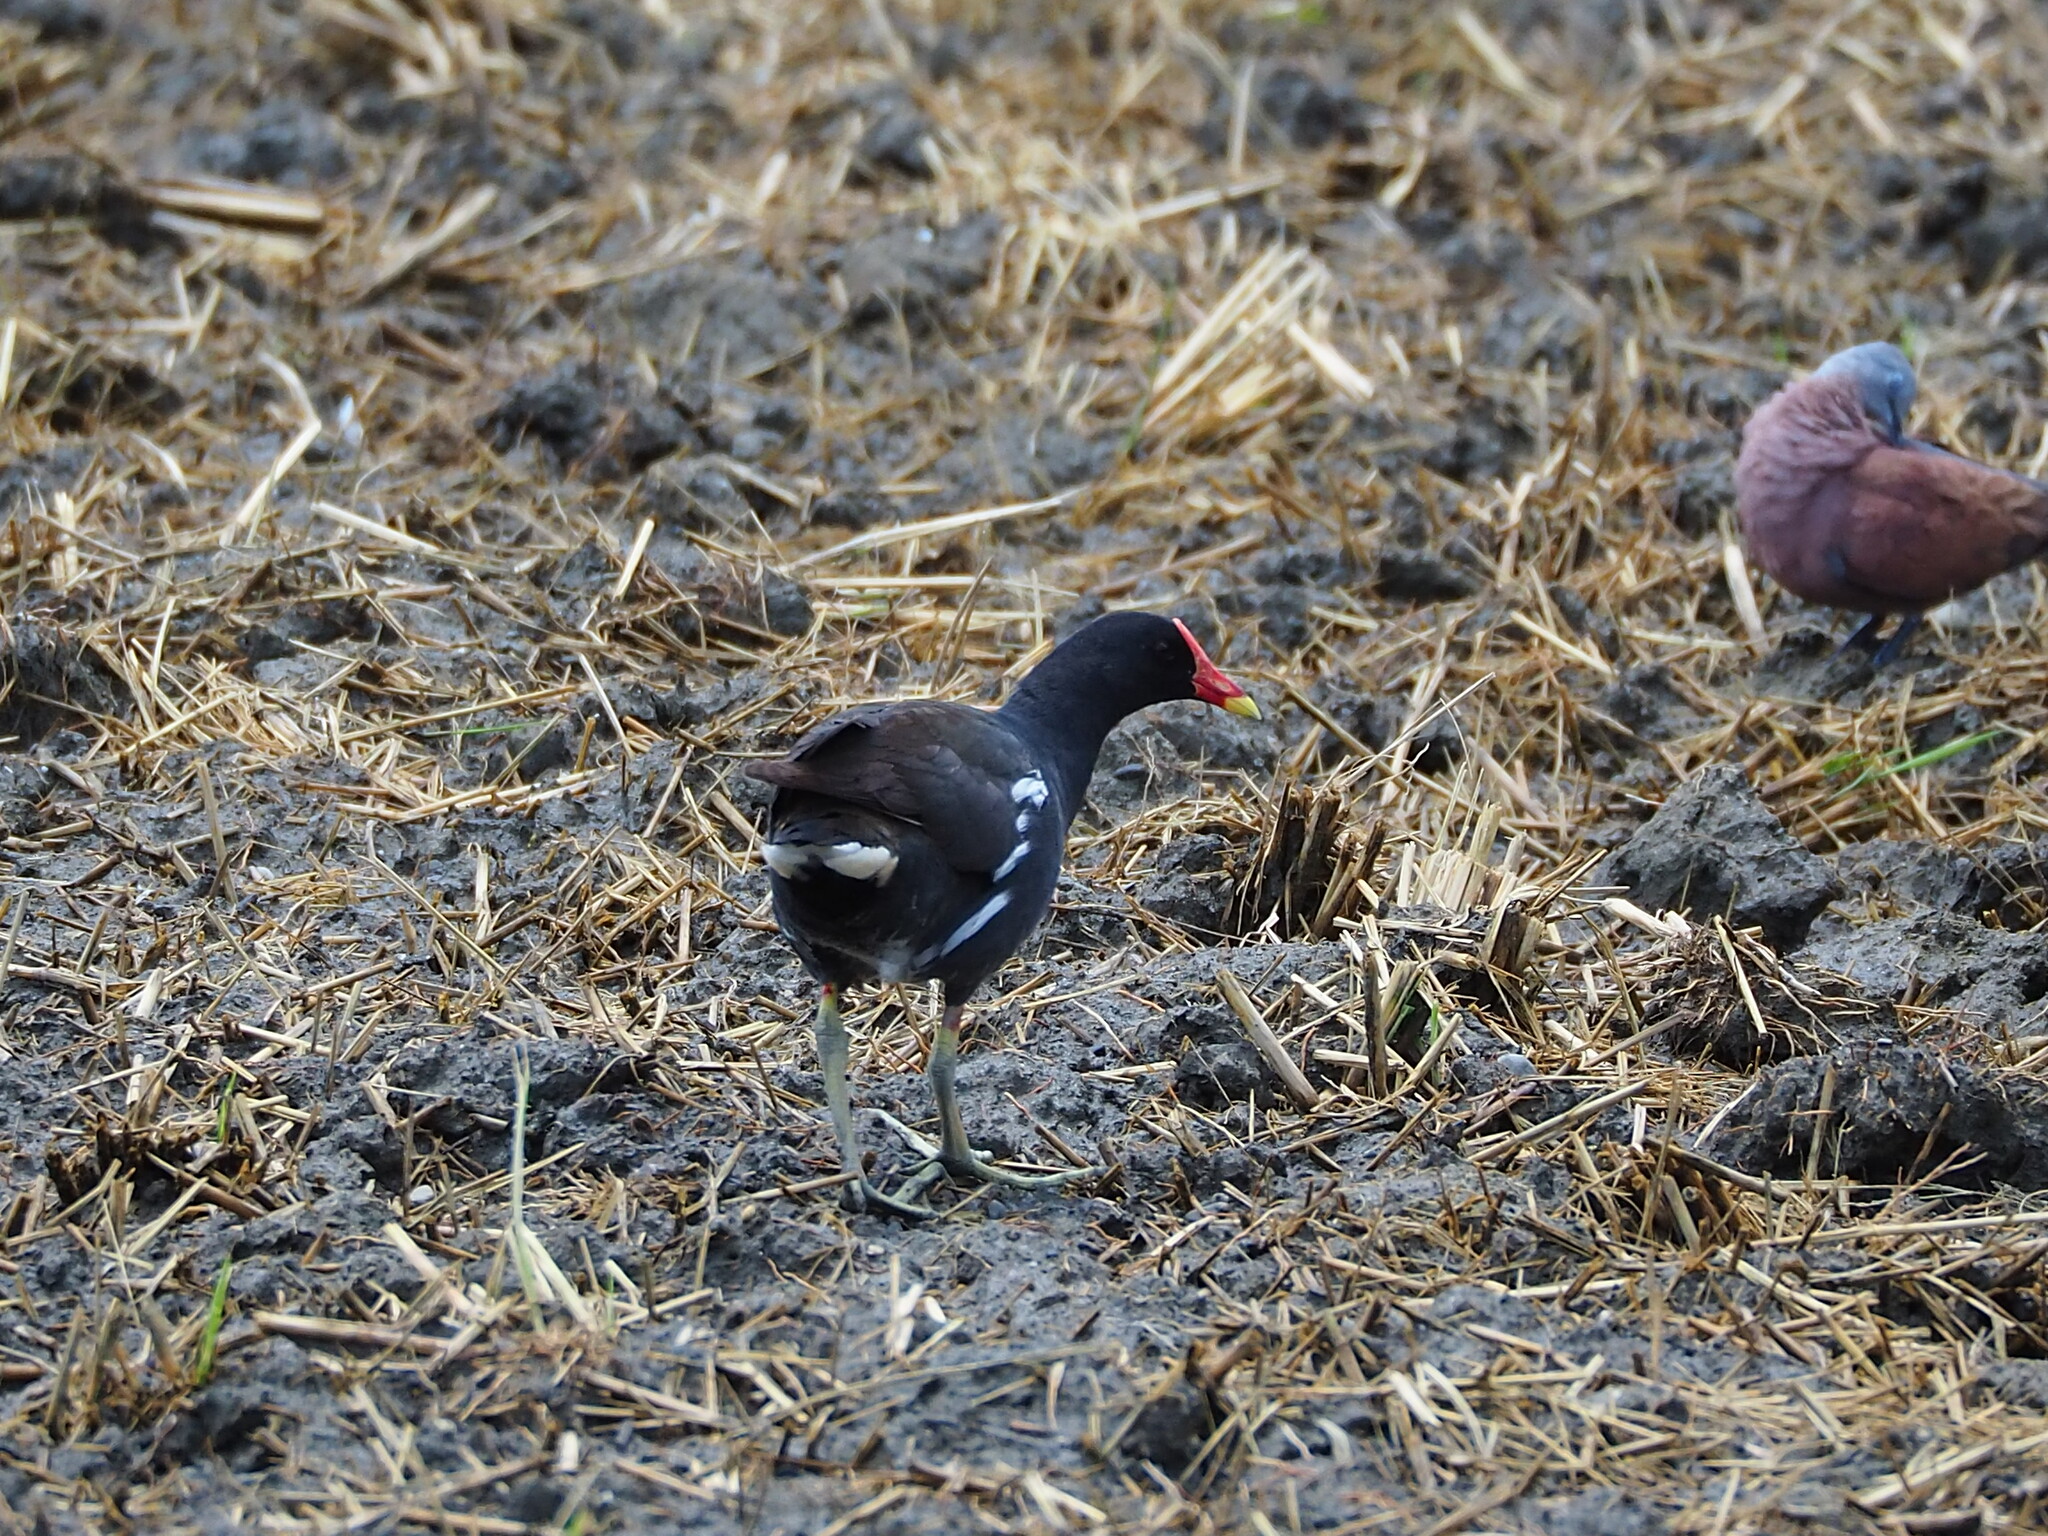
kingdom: Animalia
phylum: Chordata
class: Aves
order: Gruiformes
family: Rallidae
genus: Gallinula
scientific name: Gallinula chloropus
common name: Common moorhen
